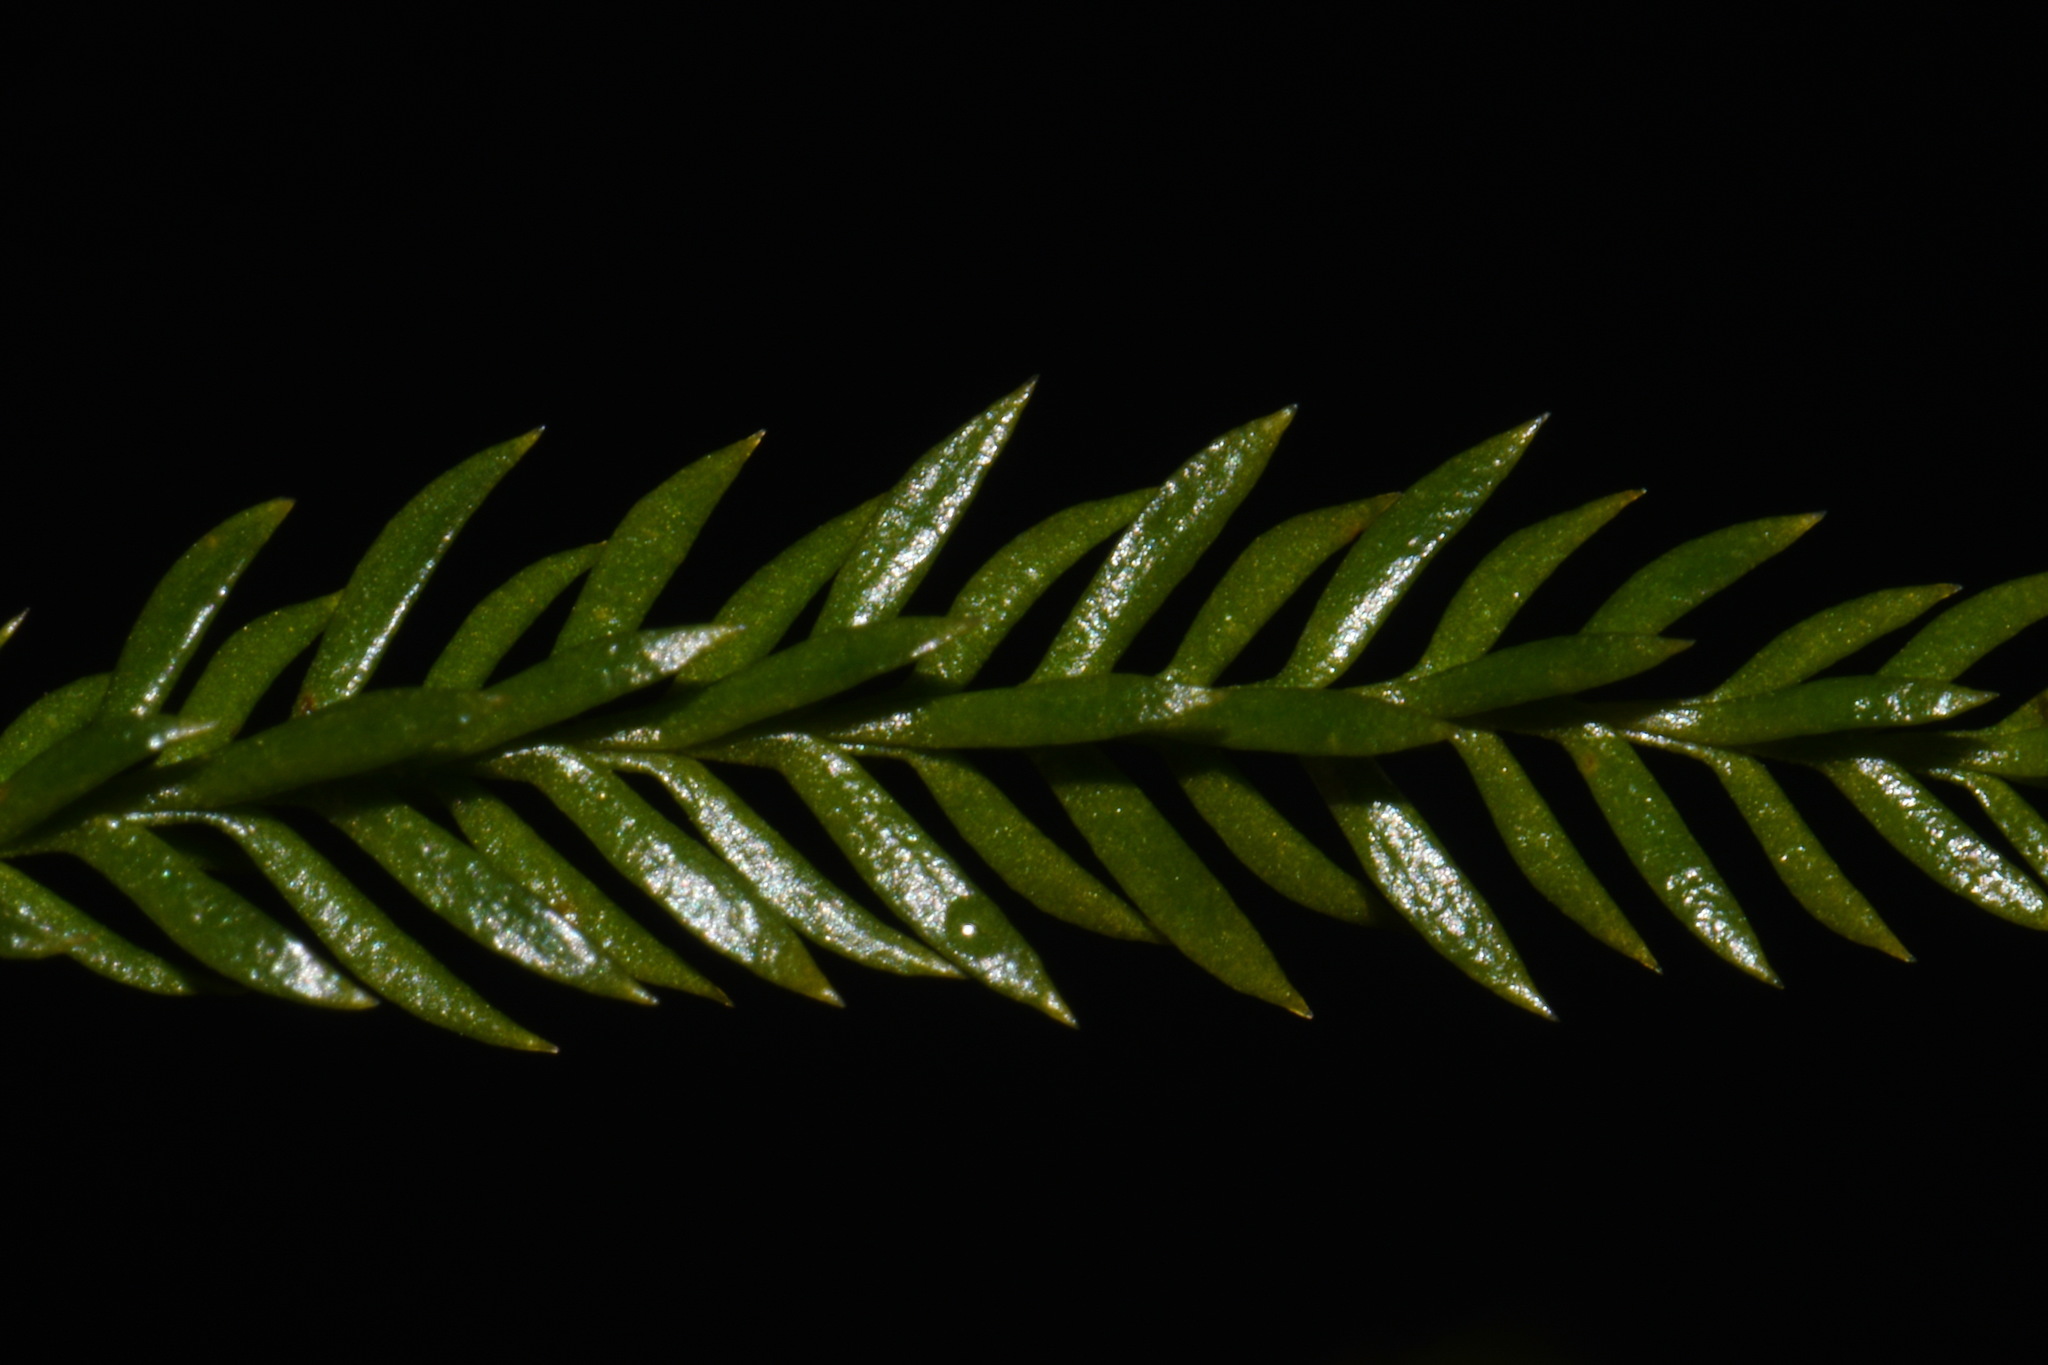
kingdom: Plantae
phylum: Tracheophyta
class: Lycopodiopsida
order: Lycopodiales
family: Lycopodiaceae
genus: Dendrolycopodium
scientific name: Dendrolycopodium obscurum
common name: Common ground-pine
